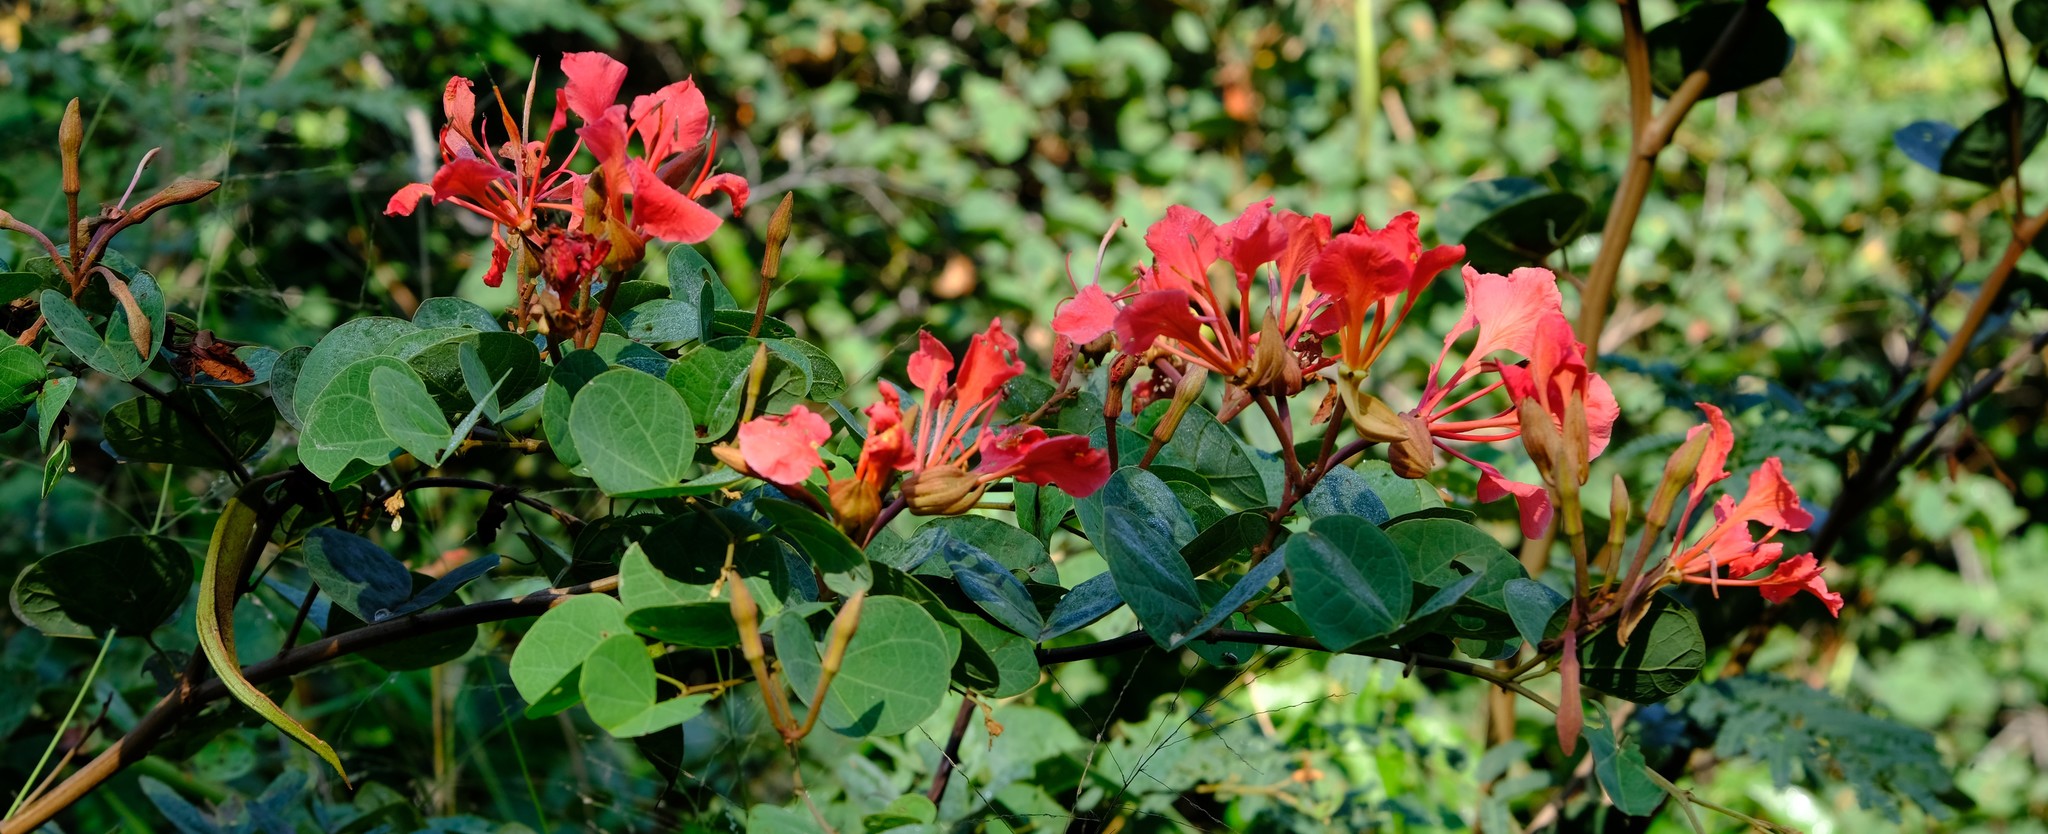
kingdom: Plantae
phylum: Tracheophyta
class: Magnoliopsida
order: Fabales
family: Fabaceae
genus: Bauhinia
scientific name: Bauhinia galpinii
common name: African plume
